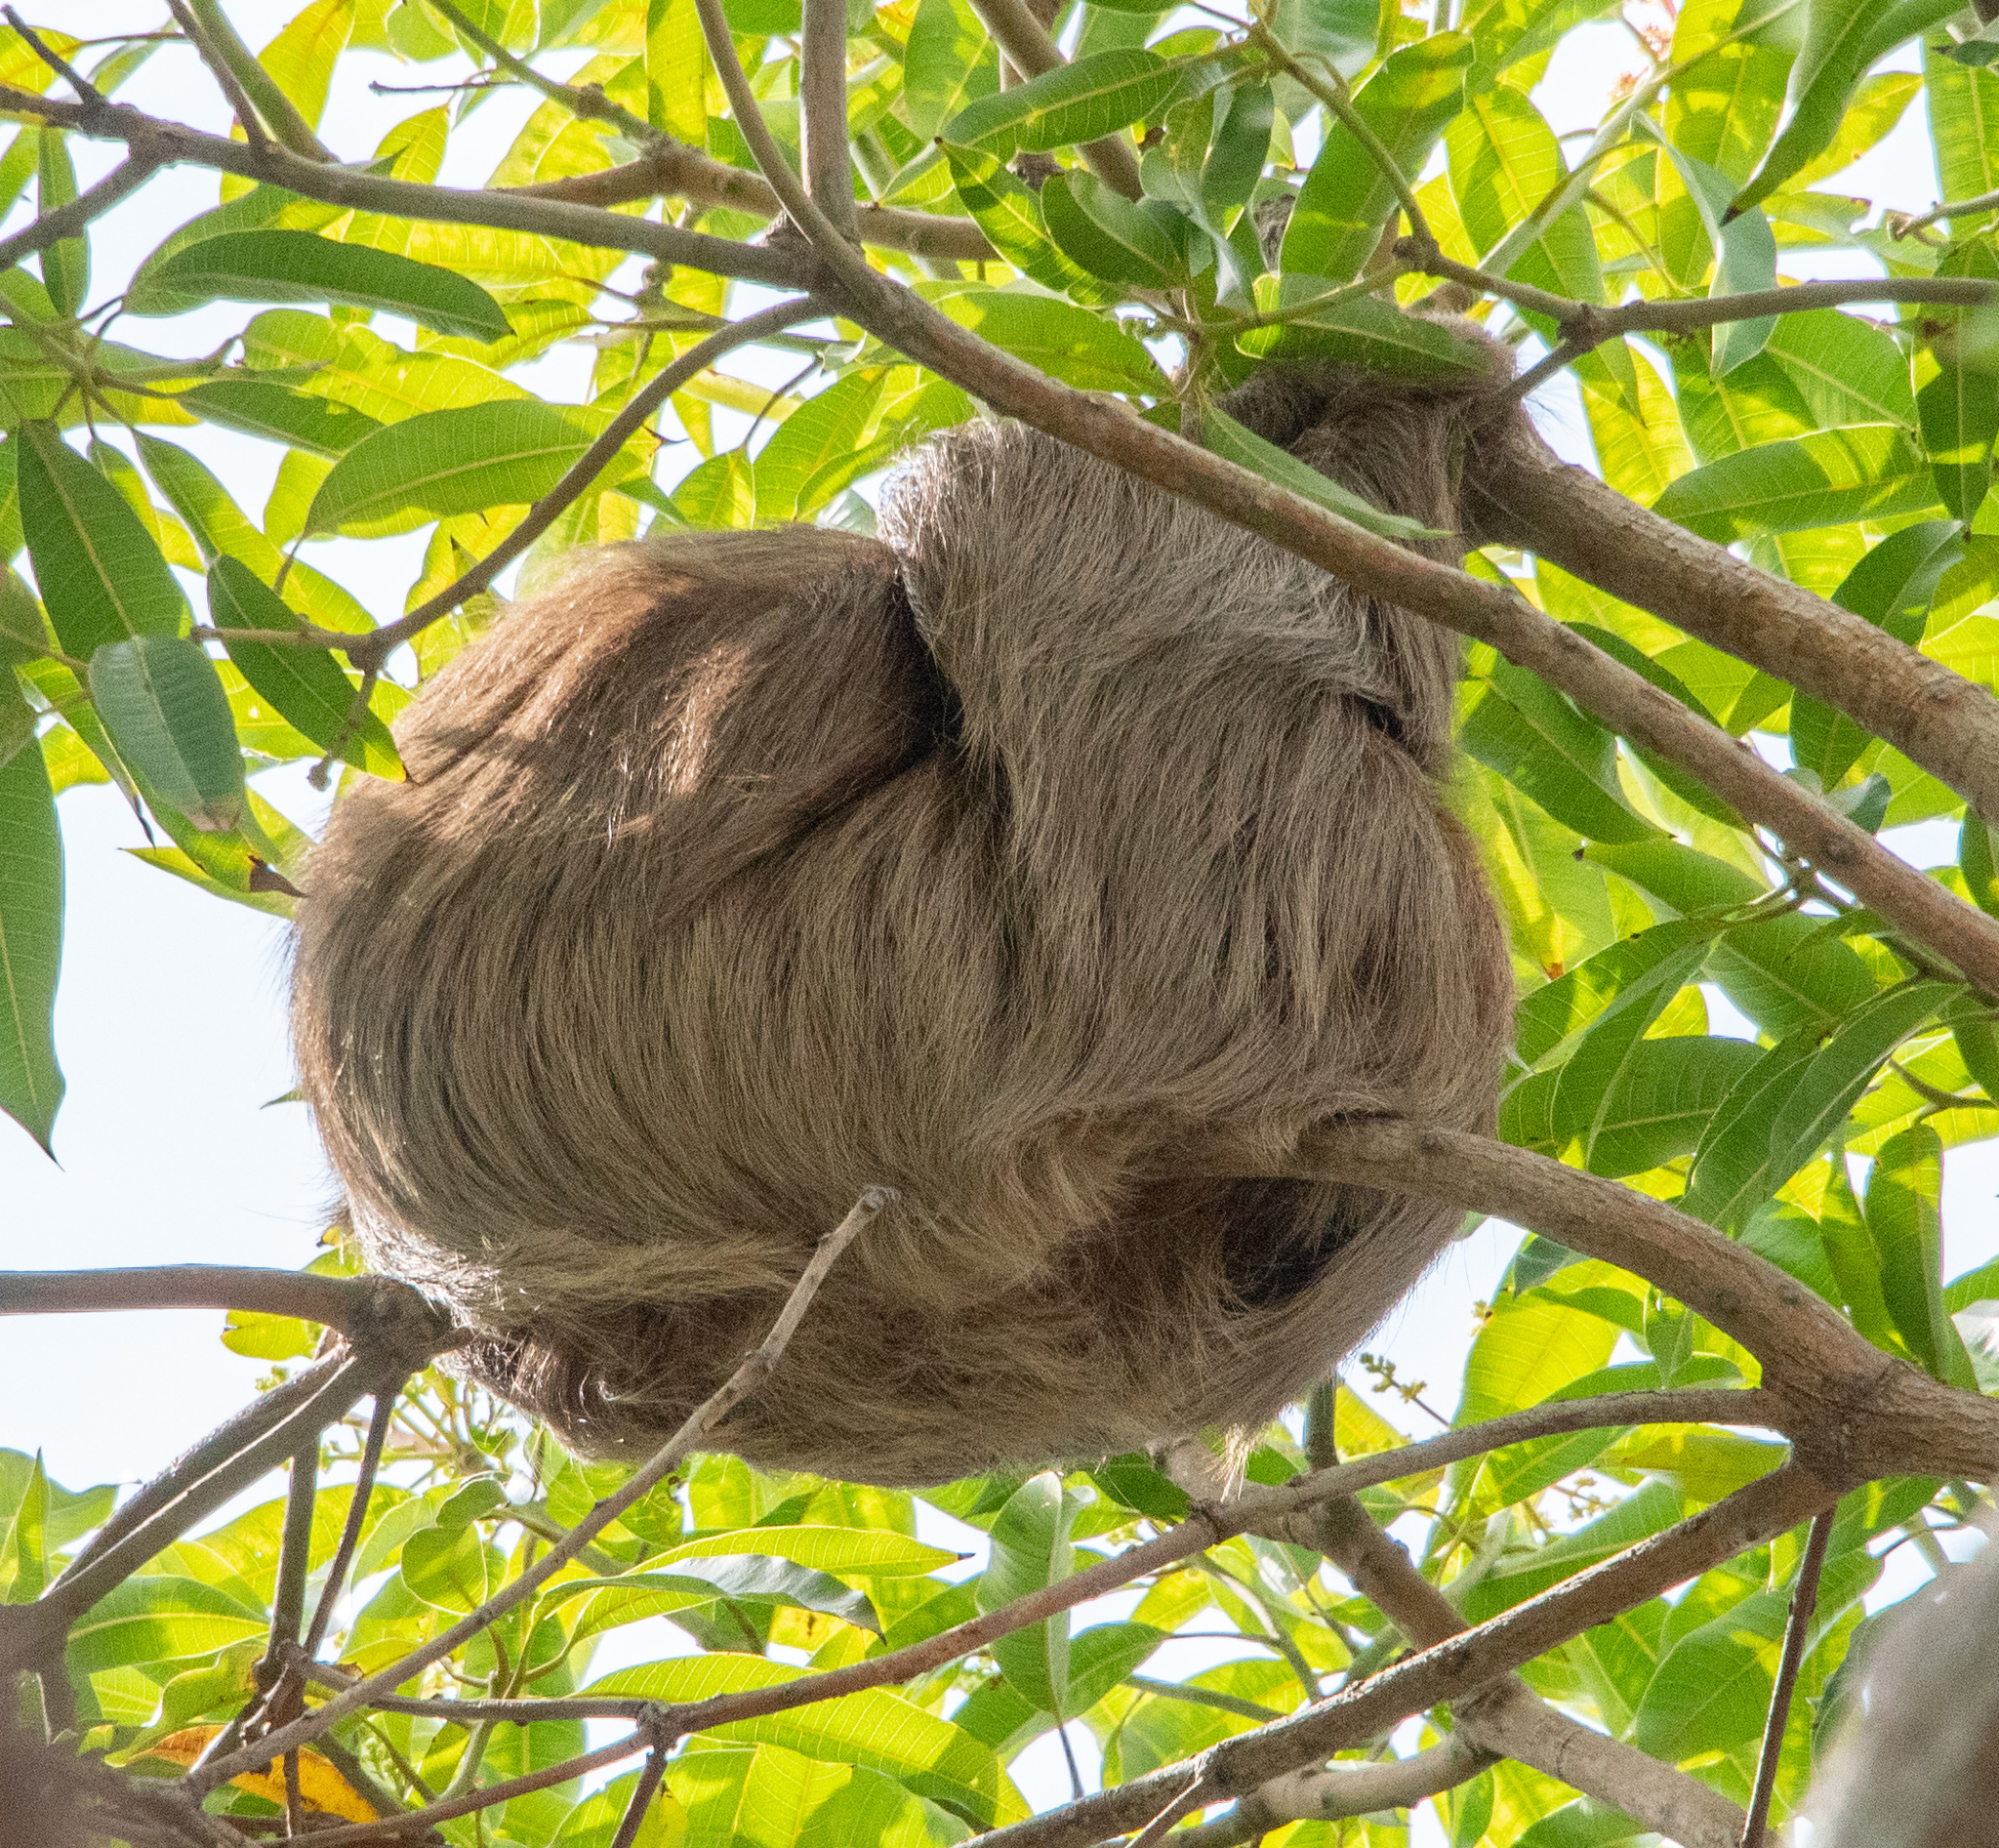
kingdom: Animalia
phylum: Chordata
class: Mammalia
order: Pilosa
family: Megalonychidae
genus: Choloepus
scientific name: Choloepus hoffmanni
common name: Hoffmann's two-toed sloth
